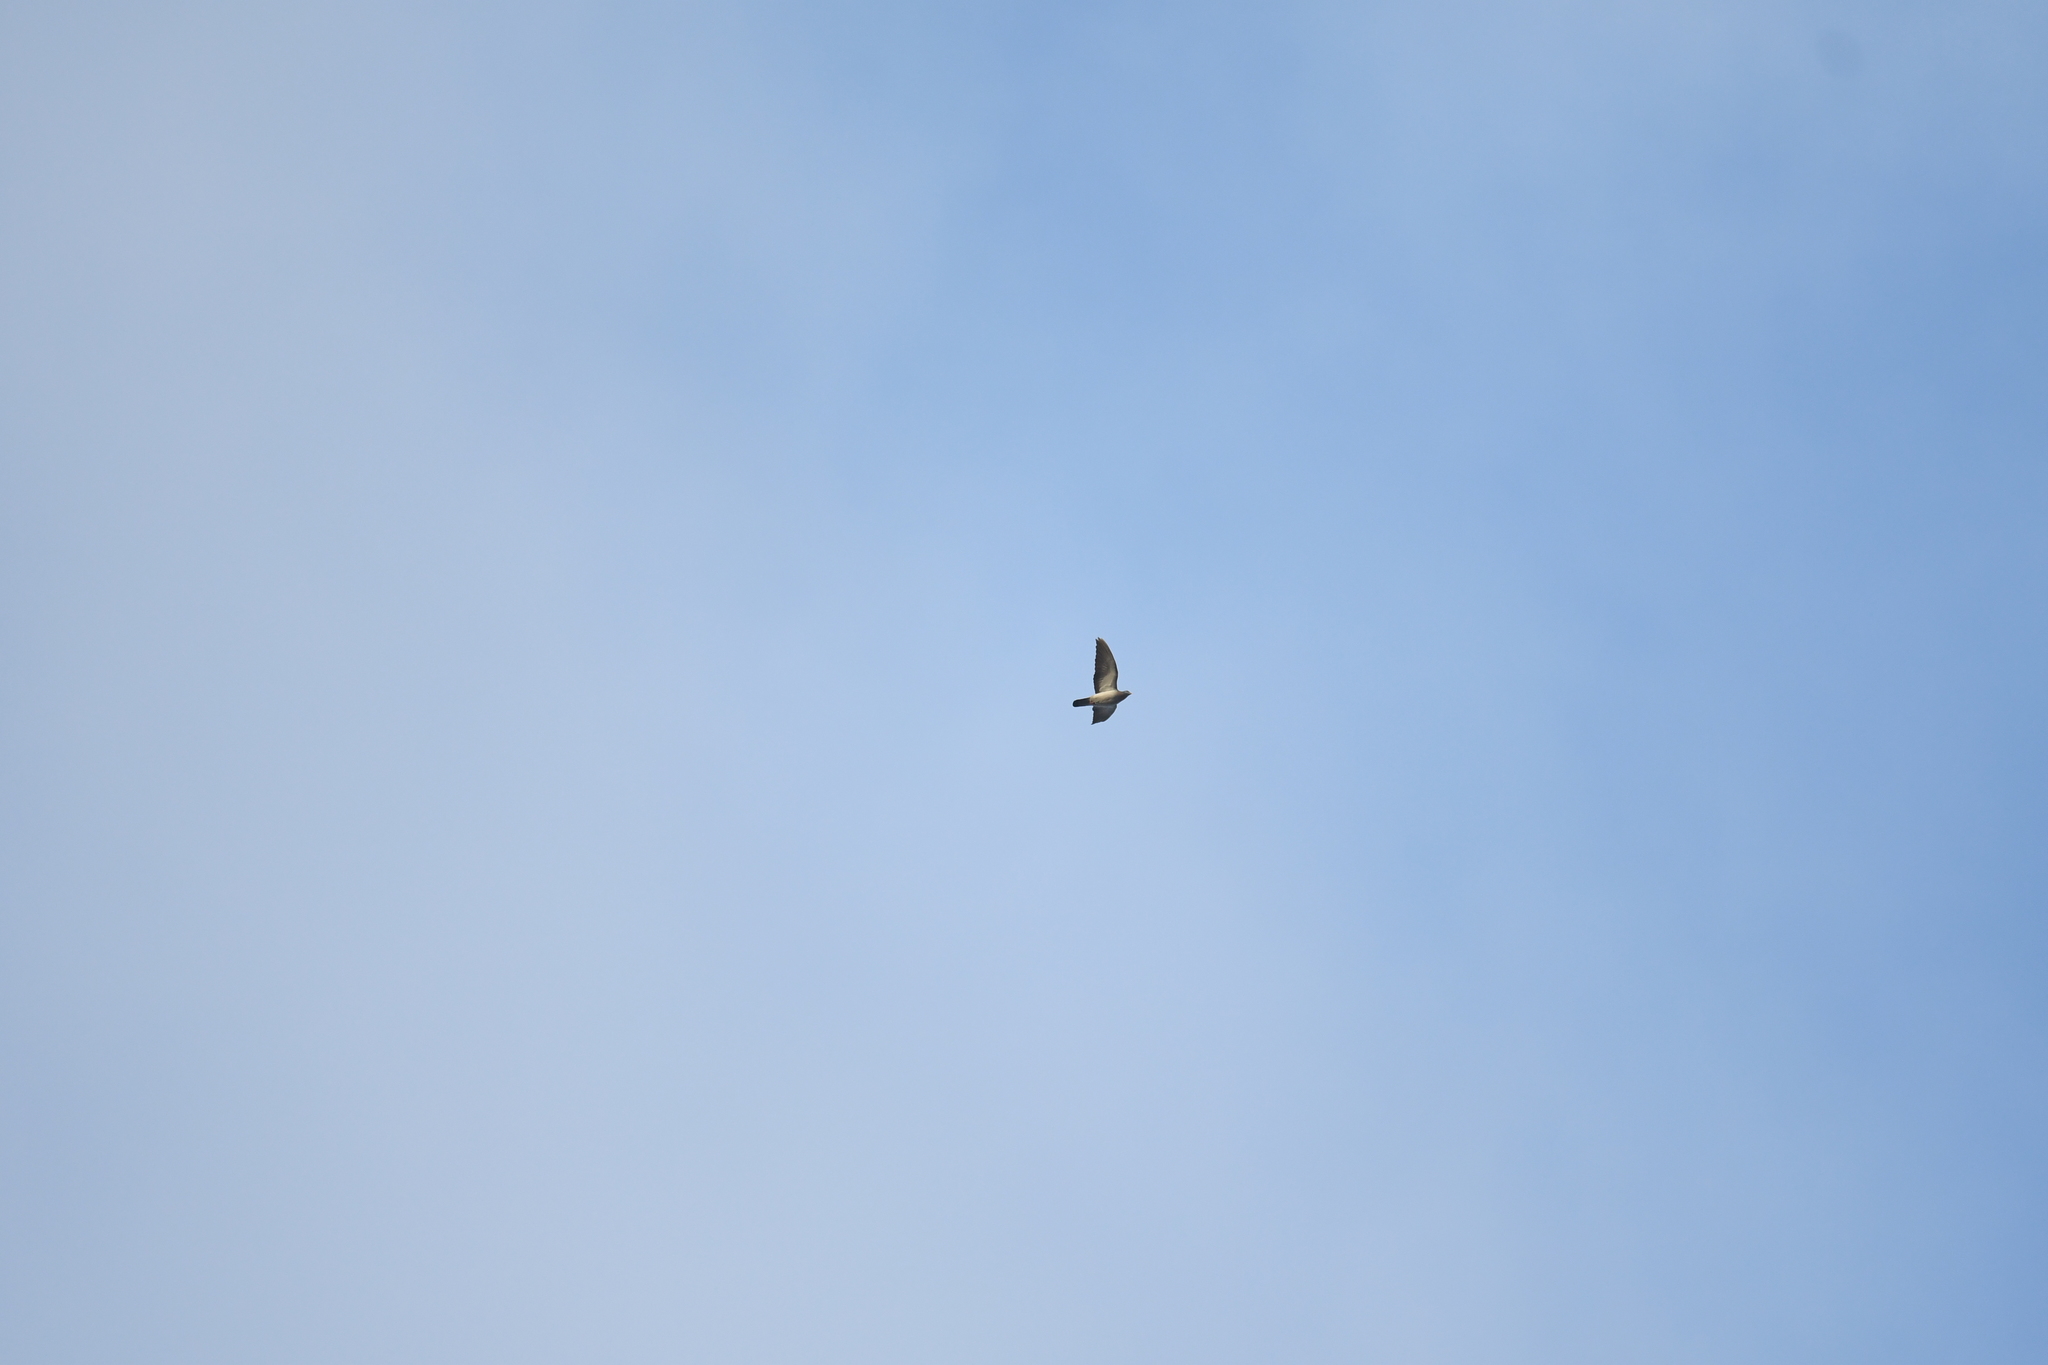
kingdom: Animalia
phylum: Chordata
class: Aves
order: Columbiformes
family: Columbidae
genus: Columba
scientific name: Columba oenas
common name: Stock dove
